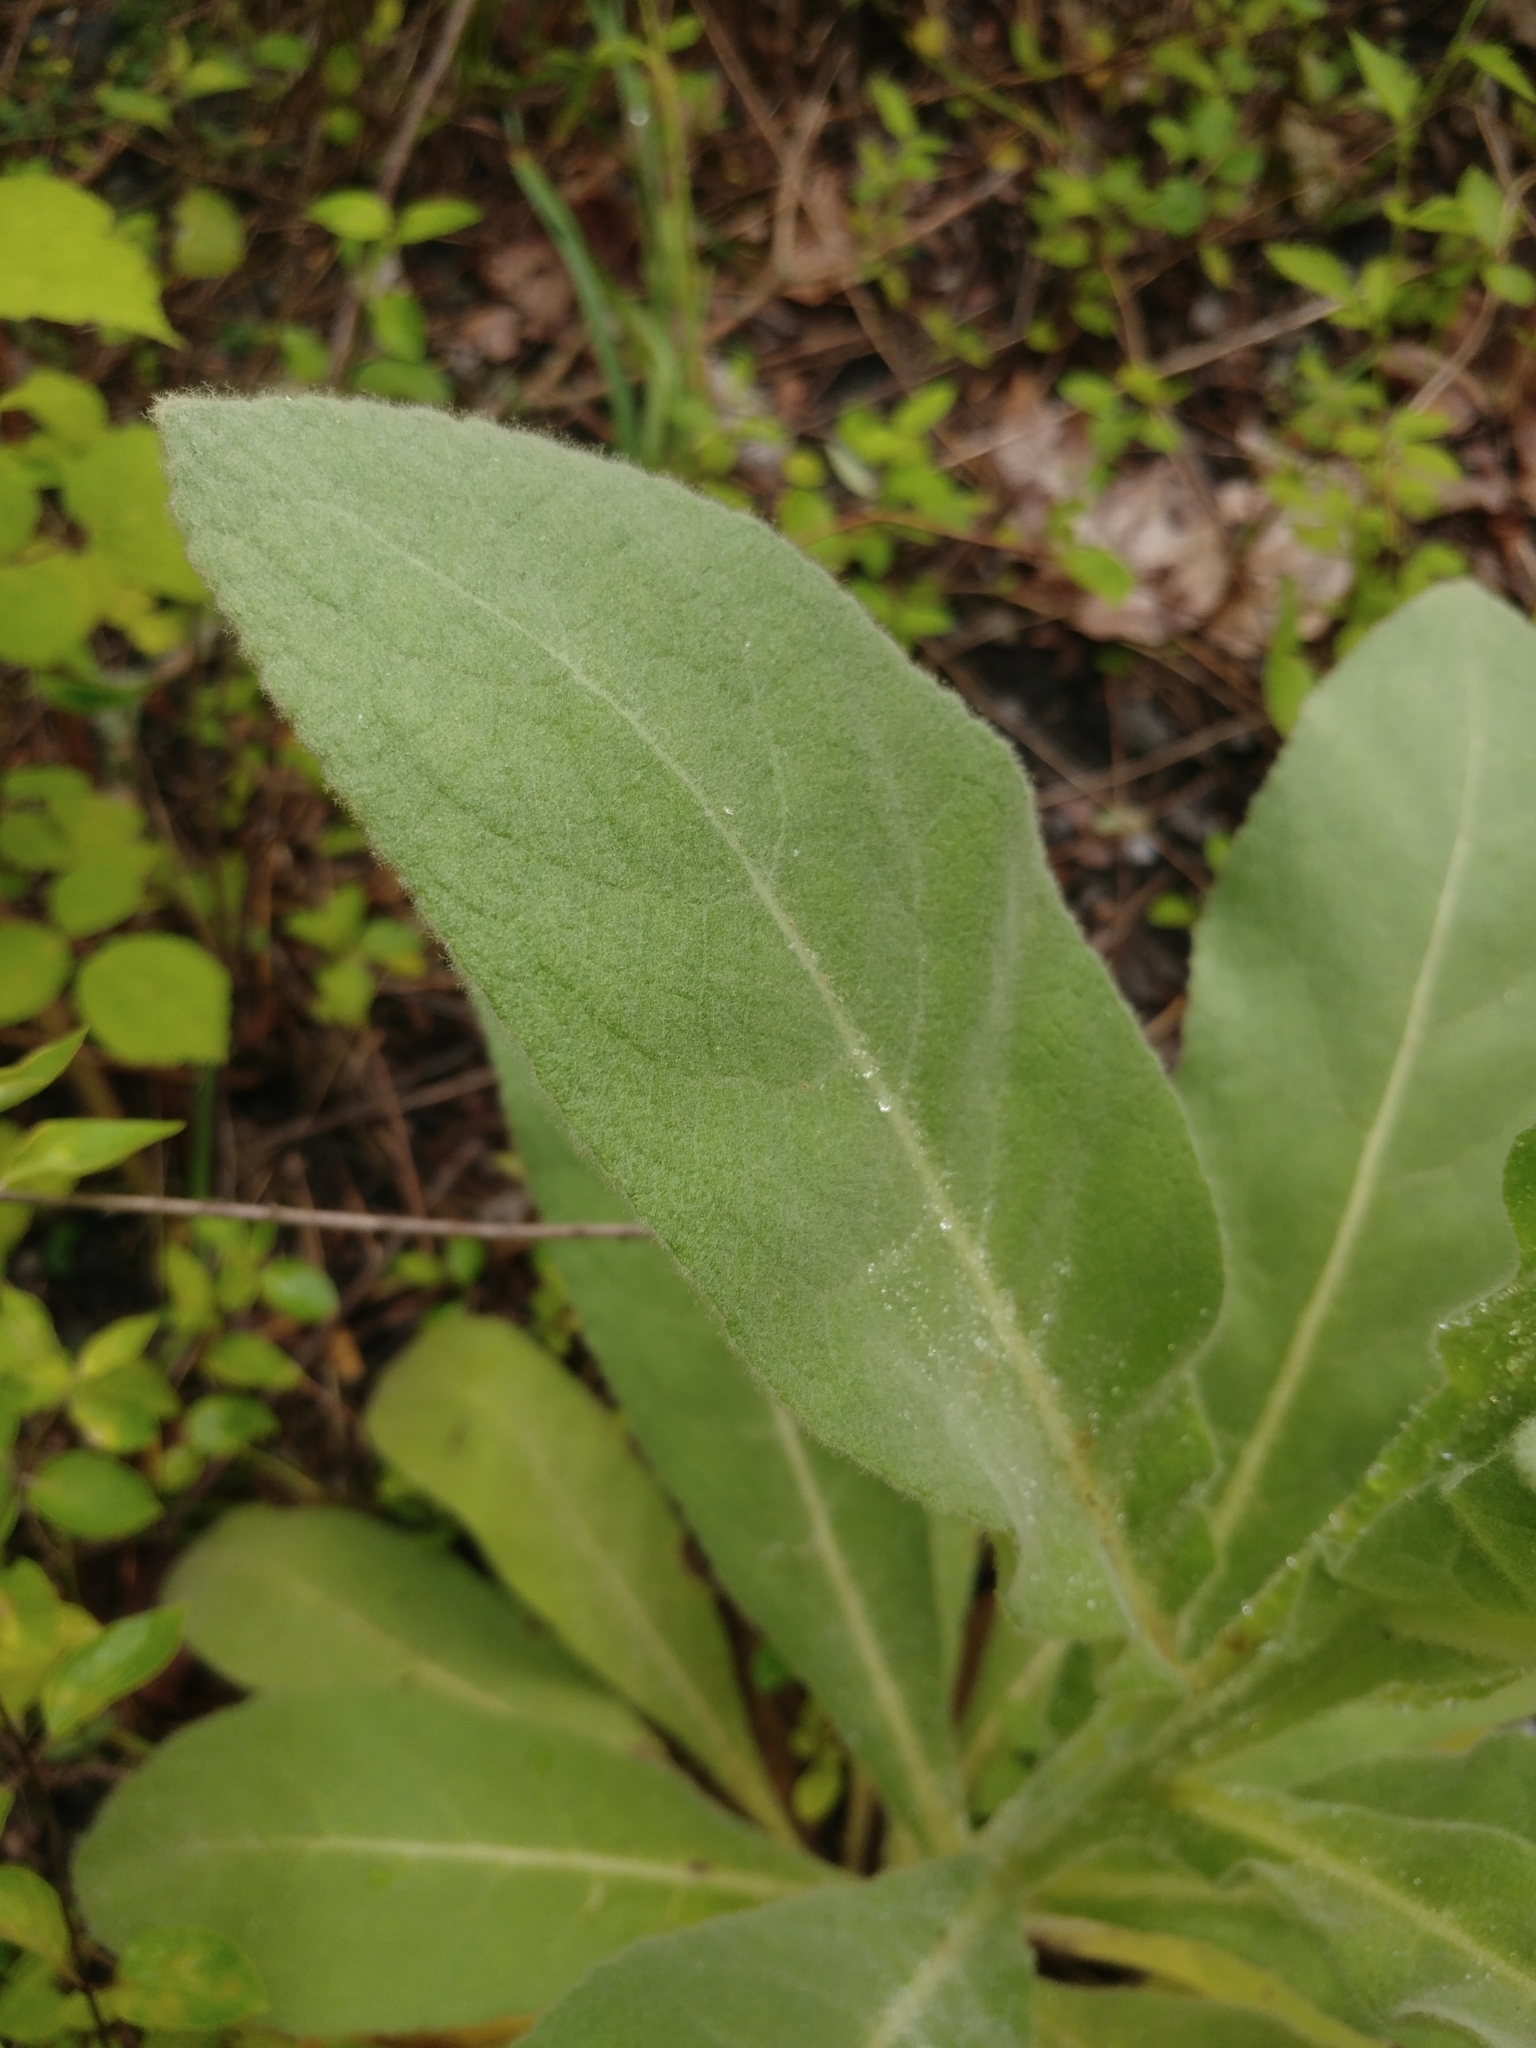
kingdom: Plantae
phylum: Tracheophyta
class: Magnoliopsida
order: Lamiales
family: Scrophulariaceae
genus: Verbascum
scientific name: Verbascum thapsus
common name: Common mullein
